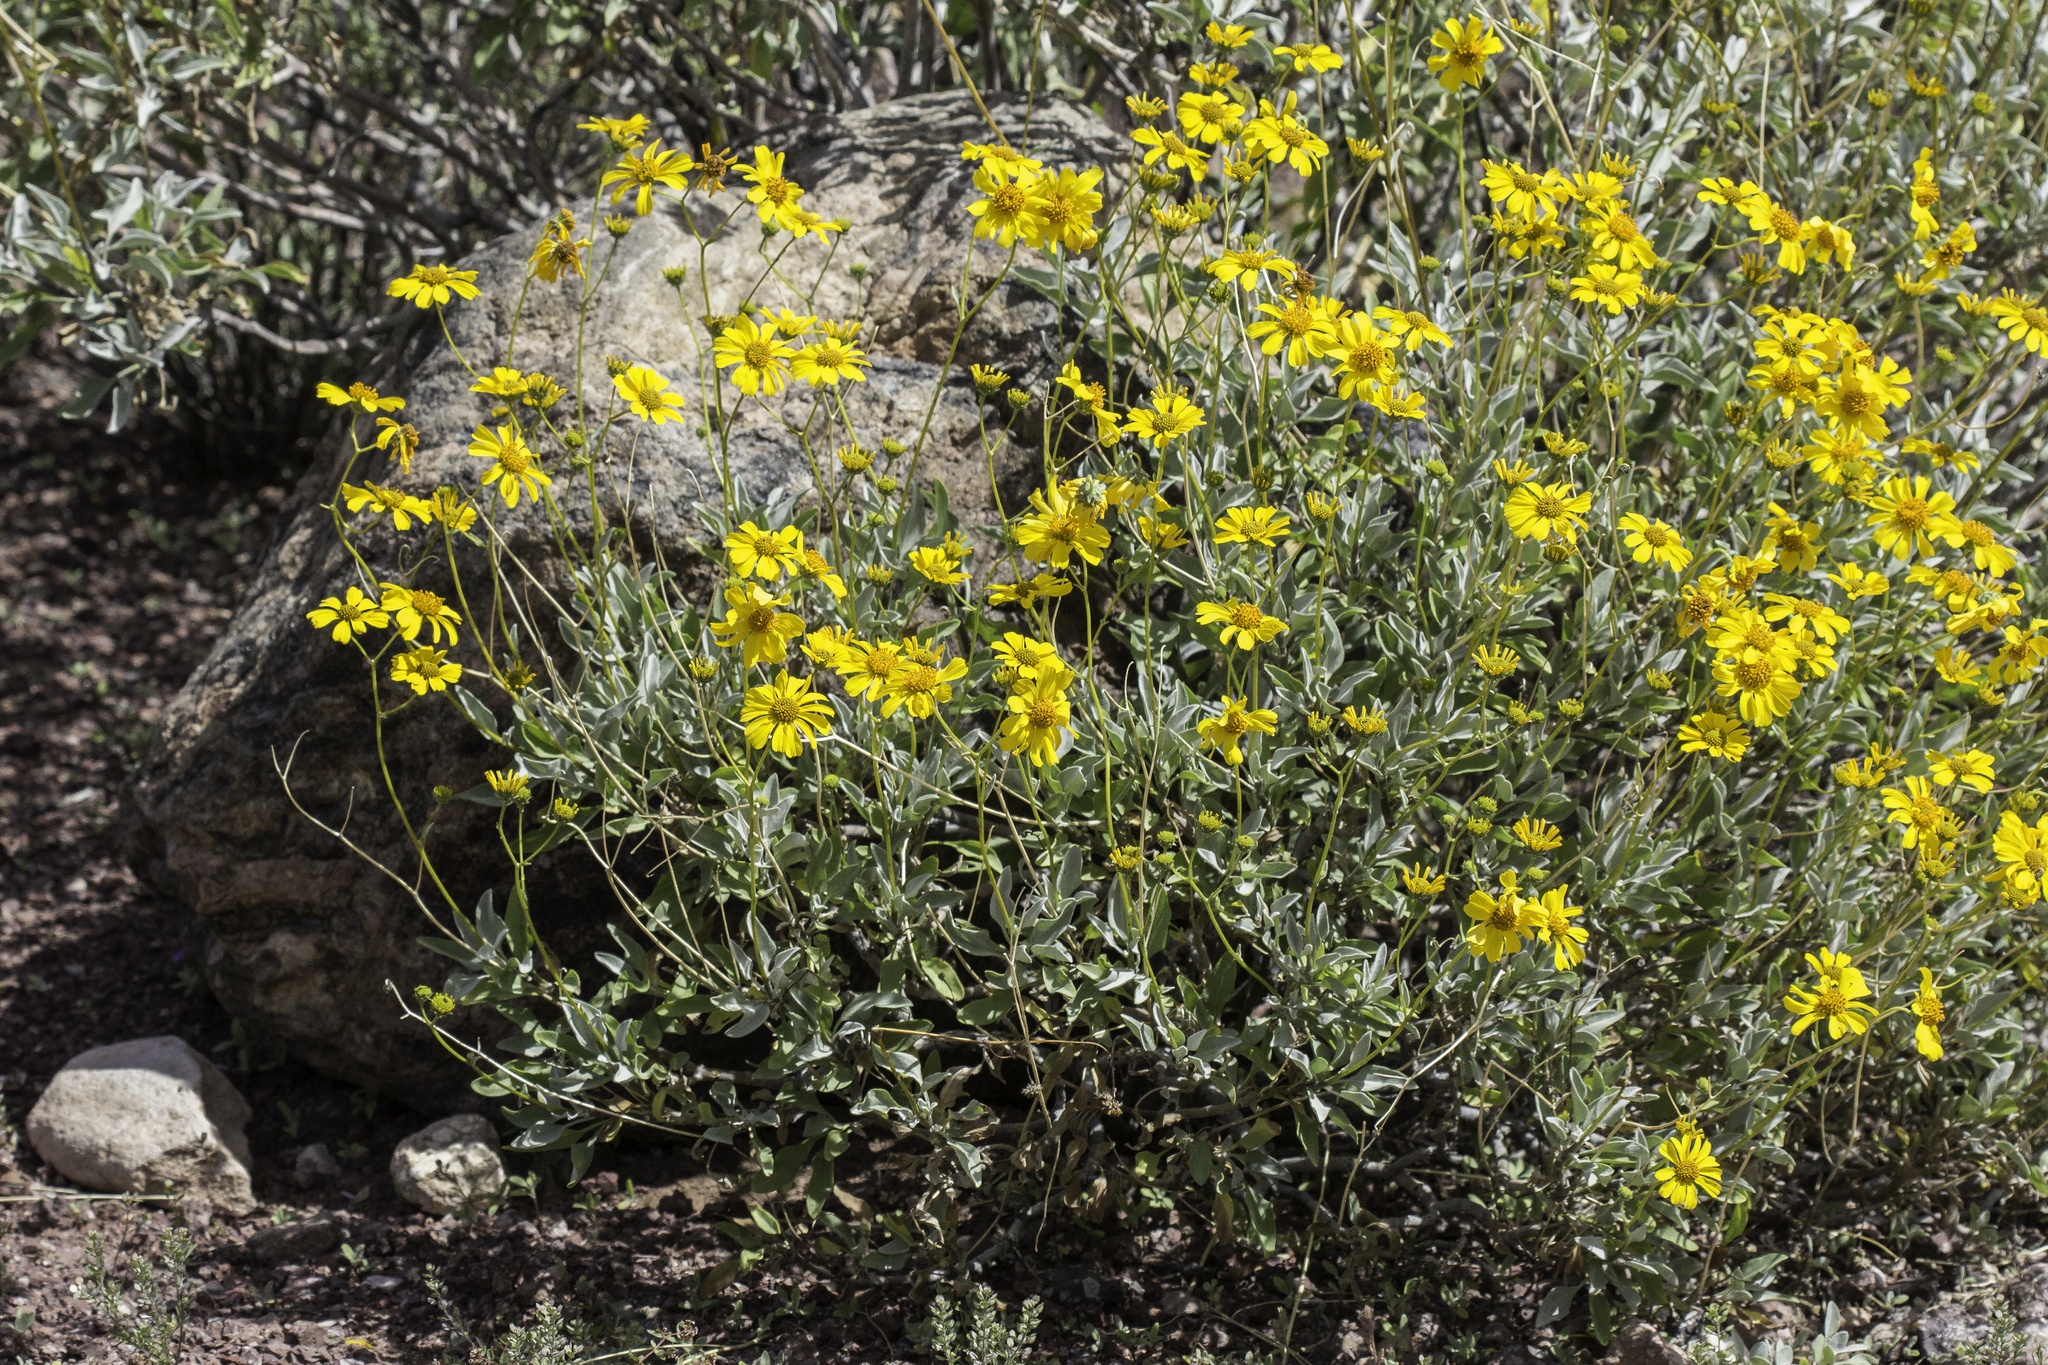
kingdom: Plantae
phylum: Tracheophyta
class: Magnoliopsida
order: Asterales
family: Asteraceae
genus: Encelia
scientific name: Encelia farinosa
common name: Brittlebush
